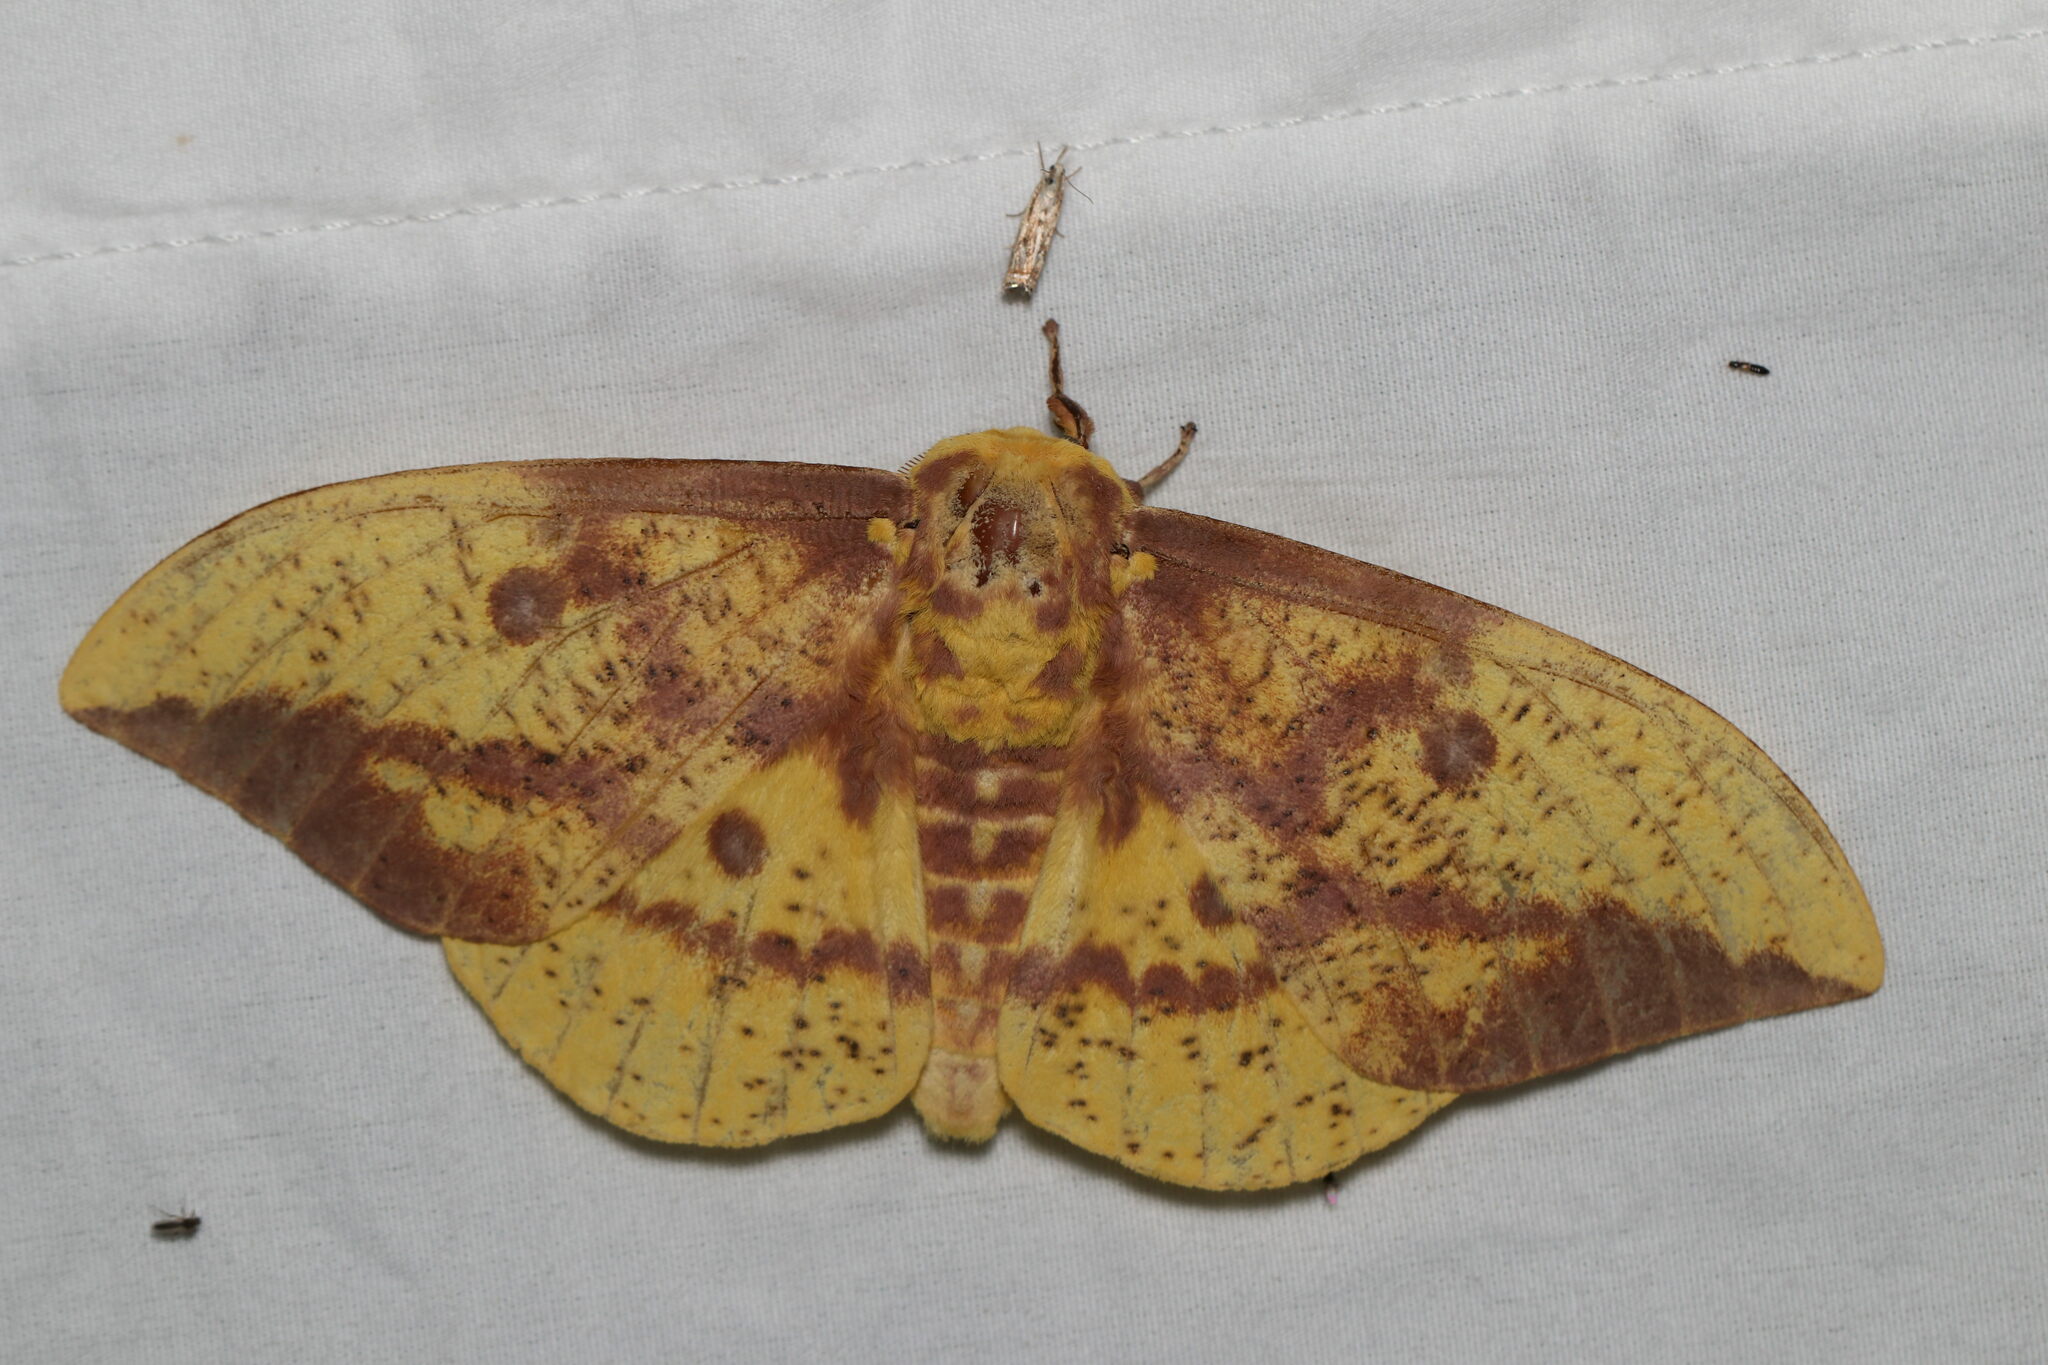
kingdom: Animalia
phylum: Arthropoda
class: Insecta
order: Lepidoptera
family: Saturniidae
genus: Eacles
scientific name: Eacles imperialis
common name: Imperial moth
